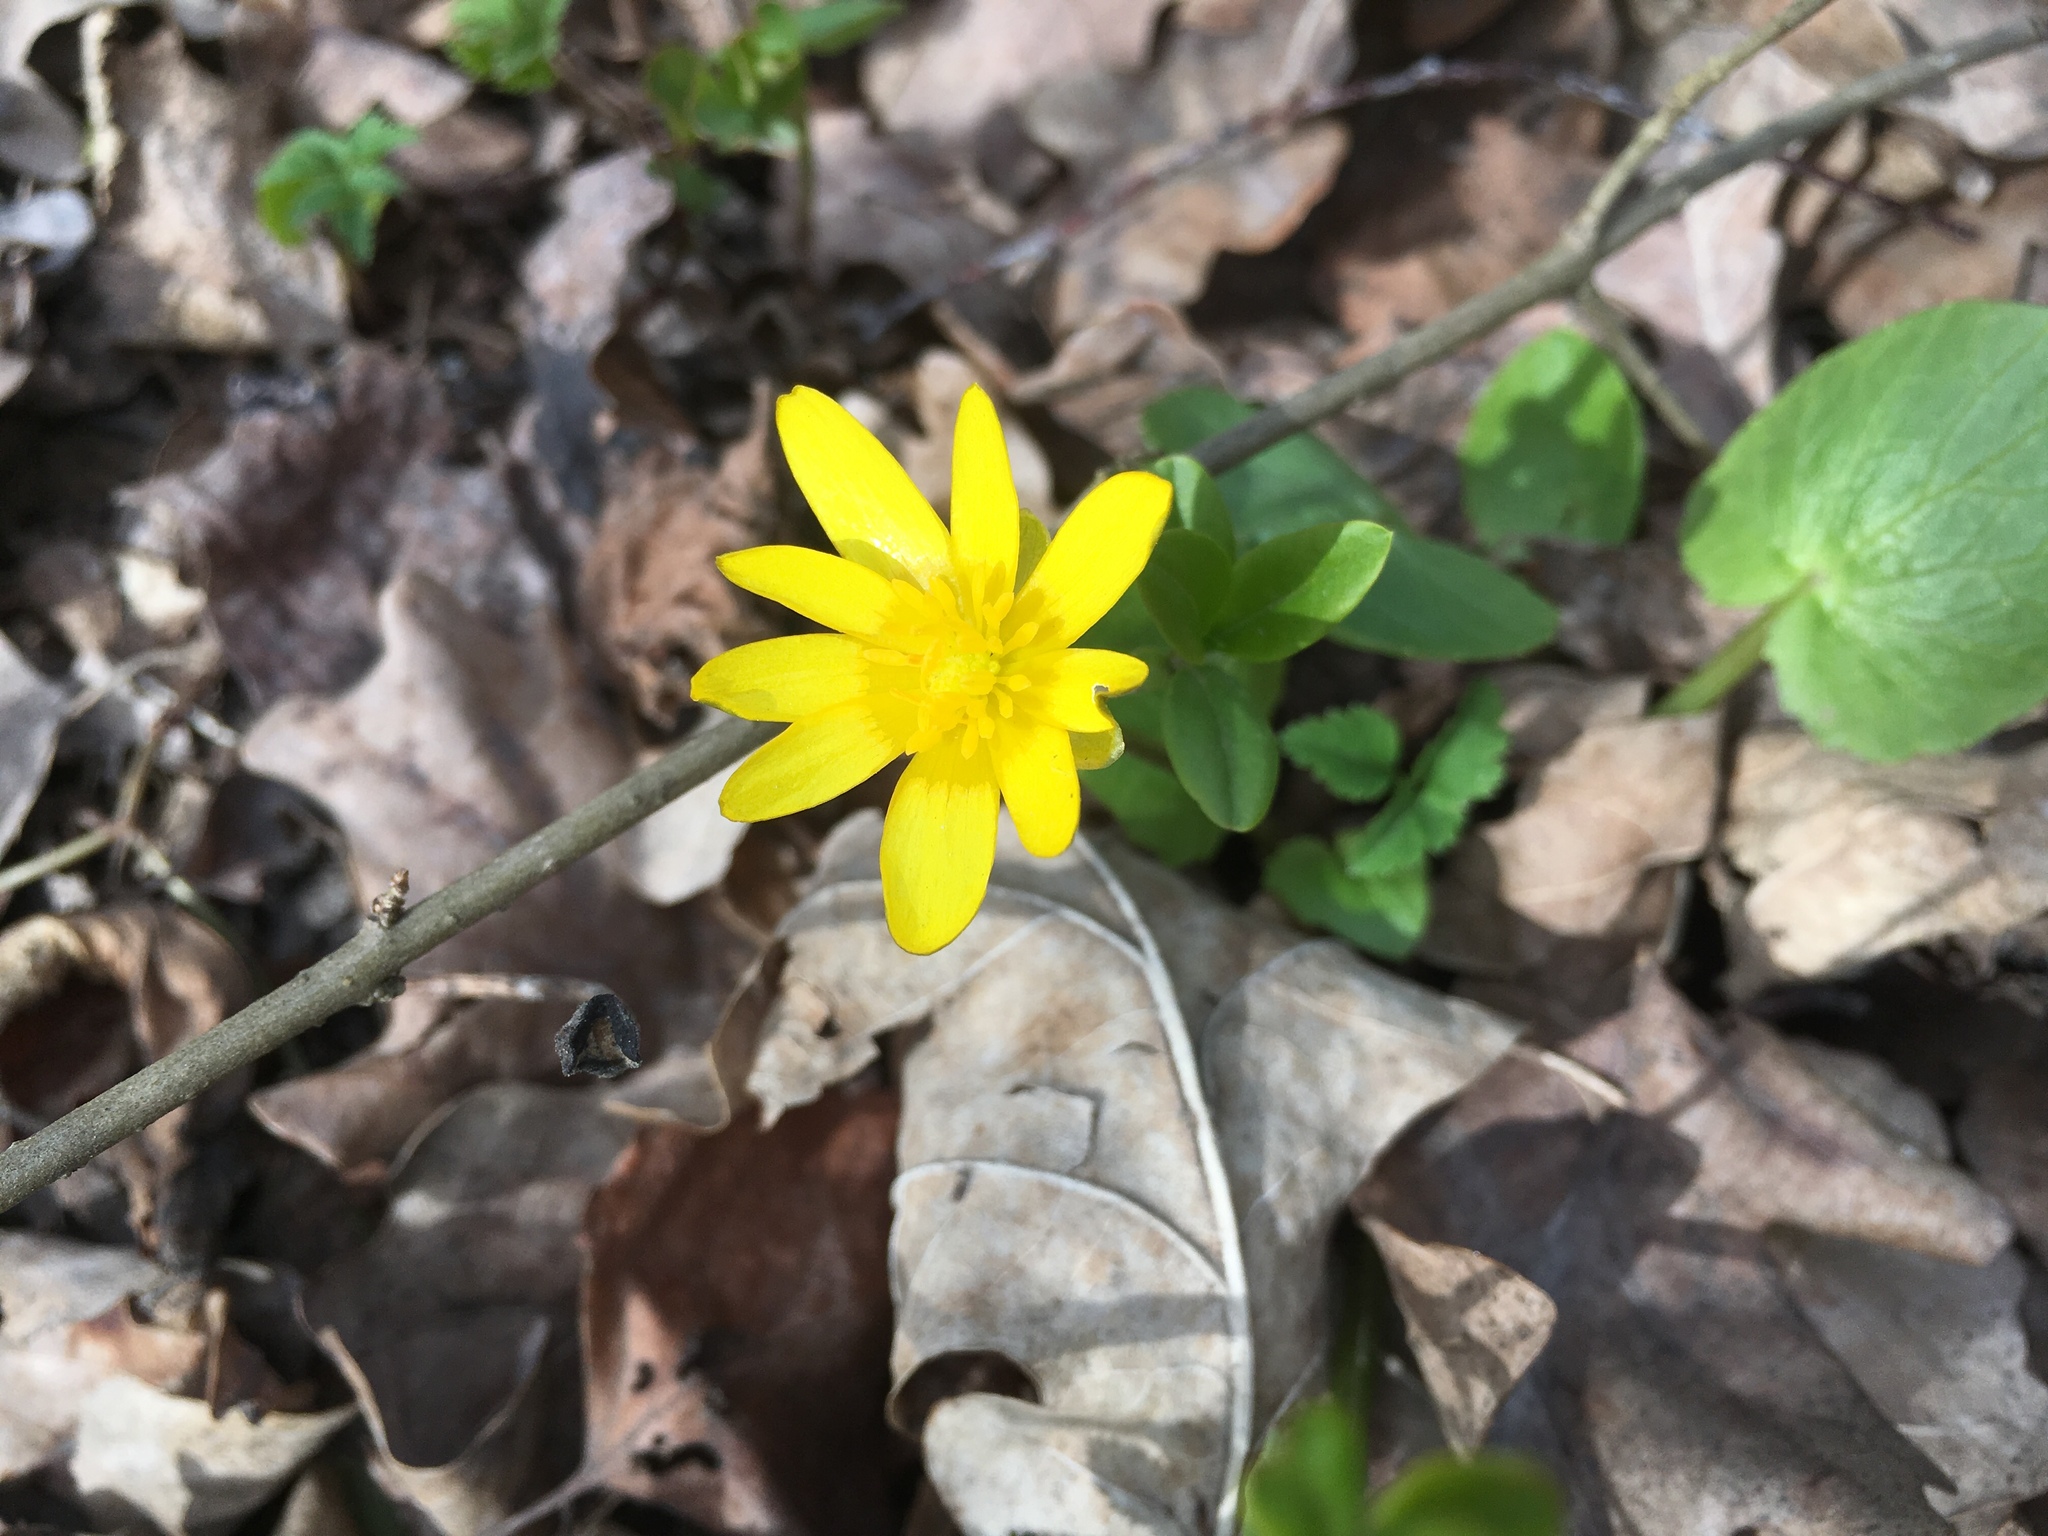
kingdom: Plantae
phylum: Tracheophyta
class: Magnoliopsida
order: Ranunculales
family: Ranunculaceae
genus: Ficaria
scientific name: Ficaria verna
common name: Lesser celandine
